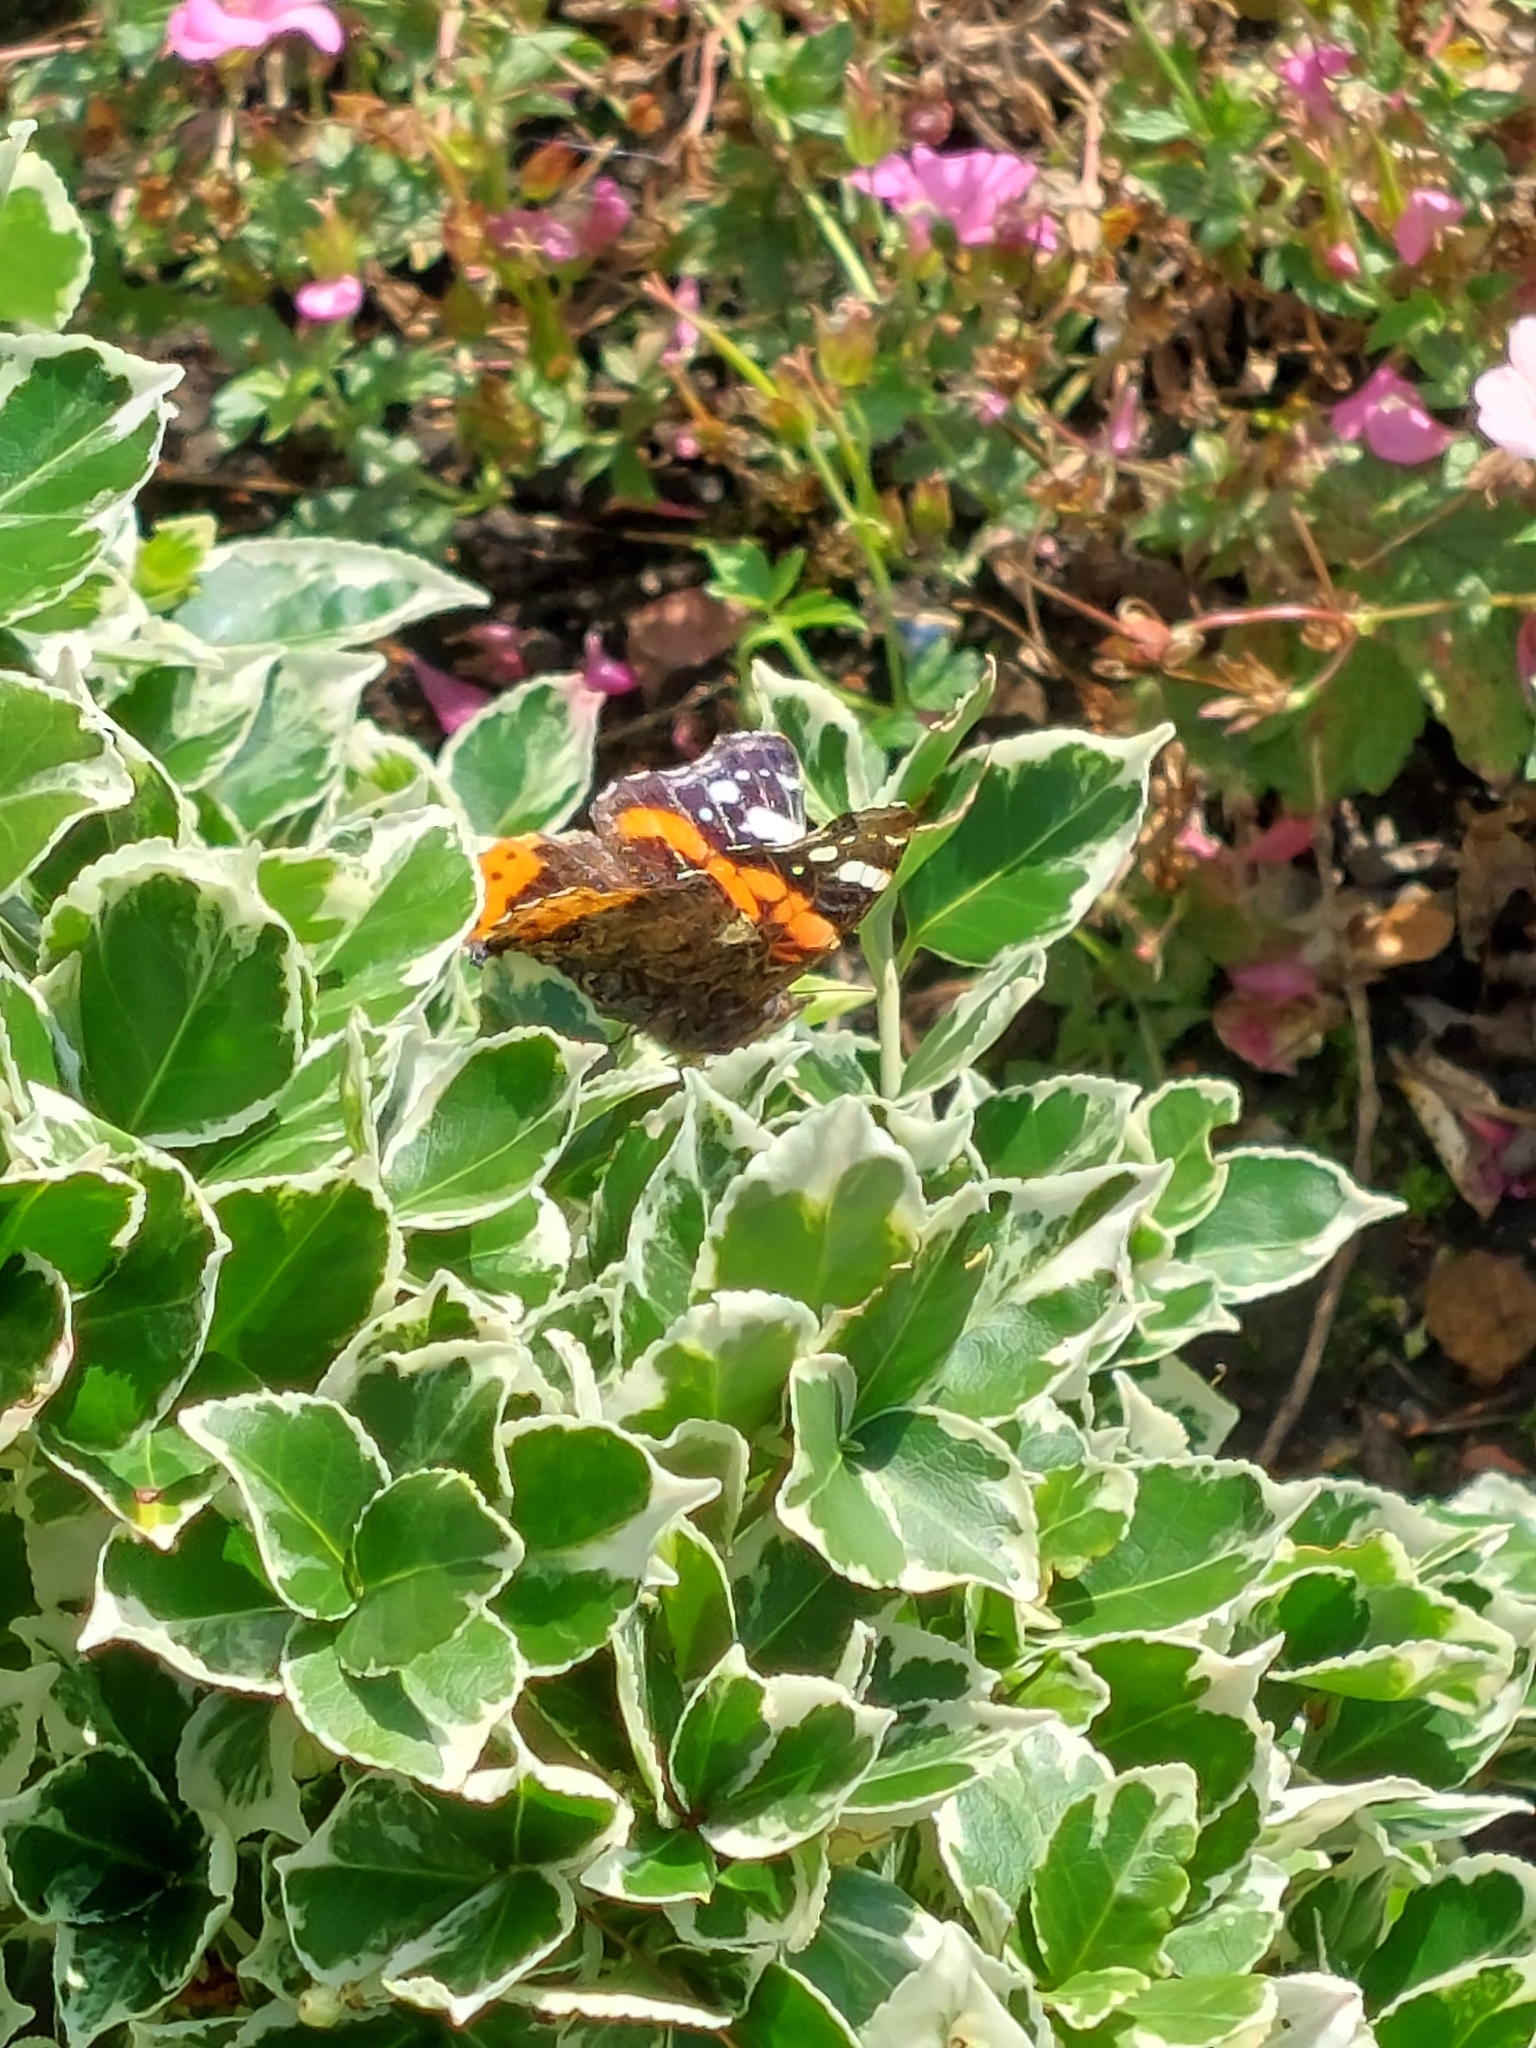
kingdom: Animalia
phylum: Arthropoda
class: Insecta
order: Lepidoptera
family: Nymphalidae
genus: Vanessa
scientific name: Vanessa atalanta
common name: Red admiral
